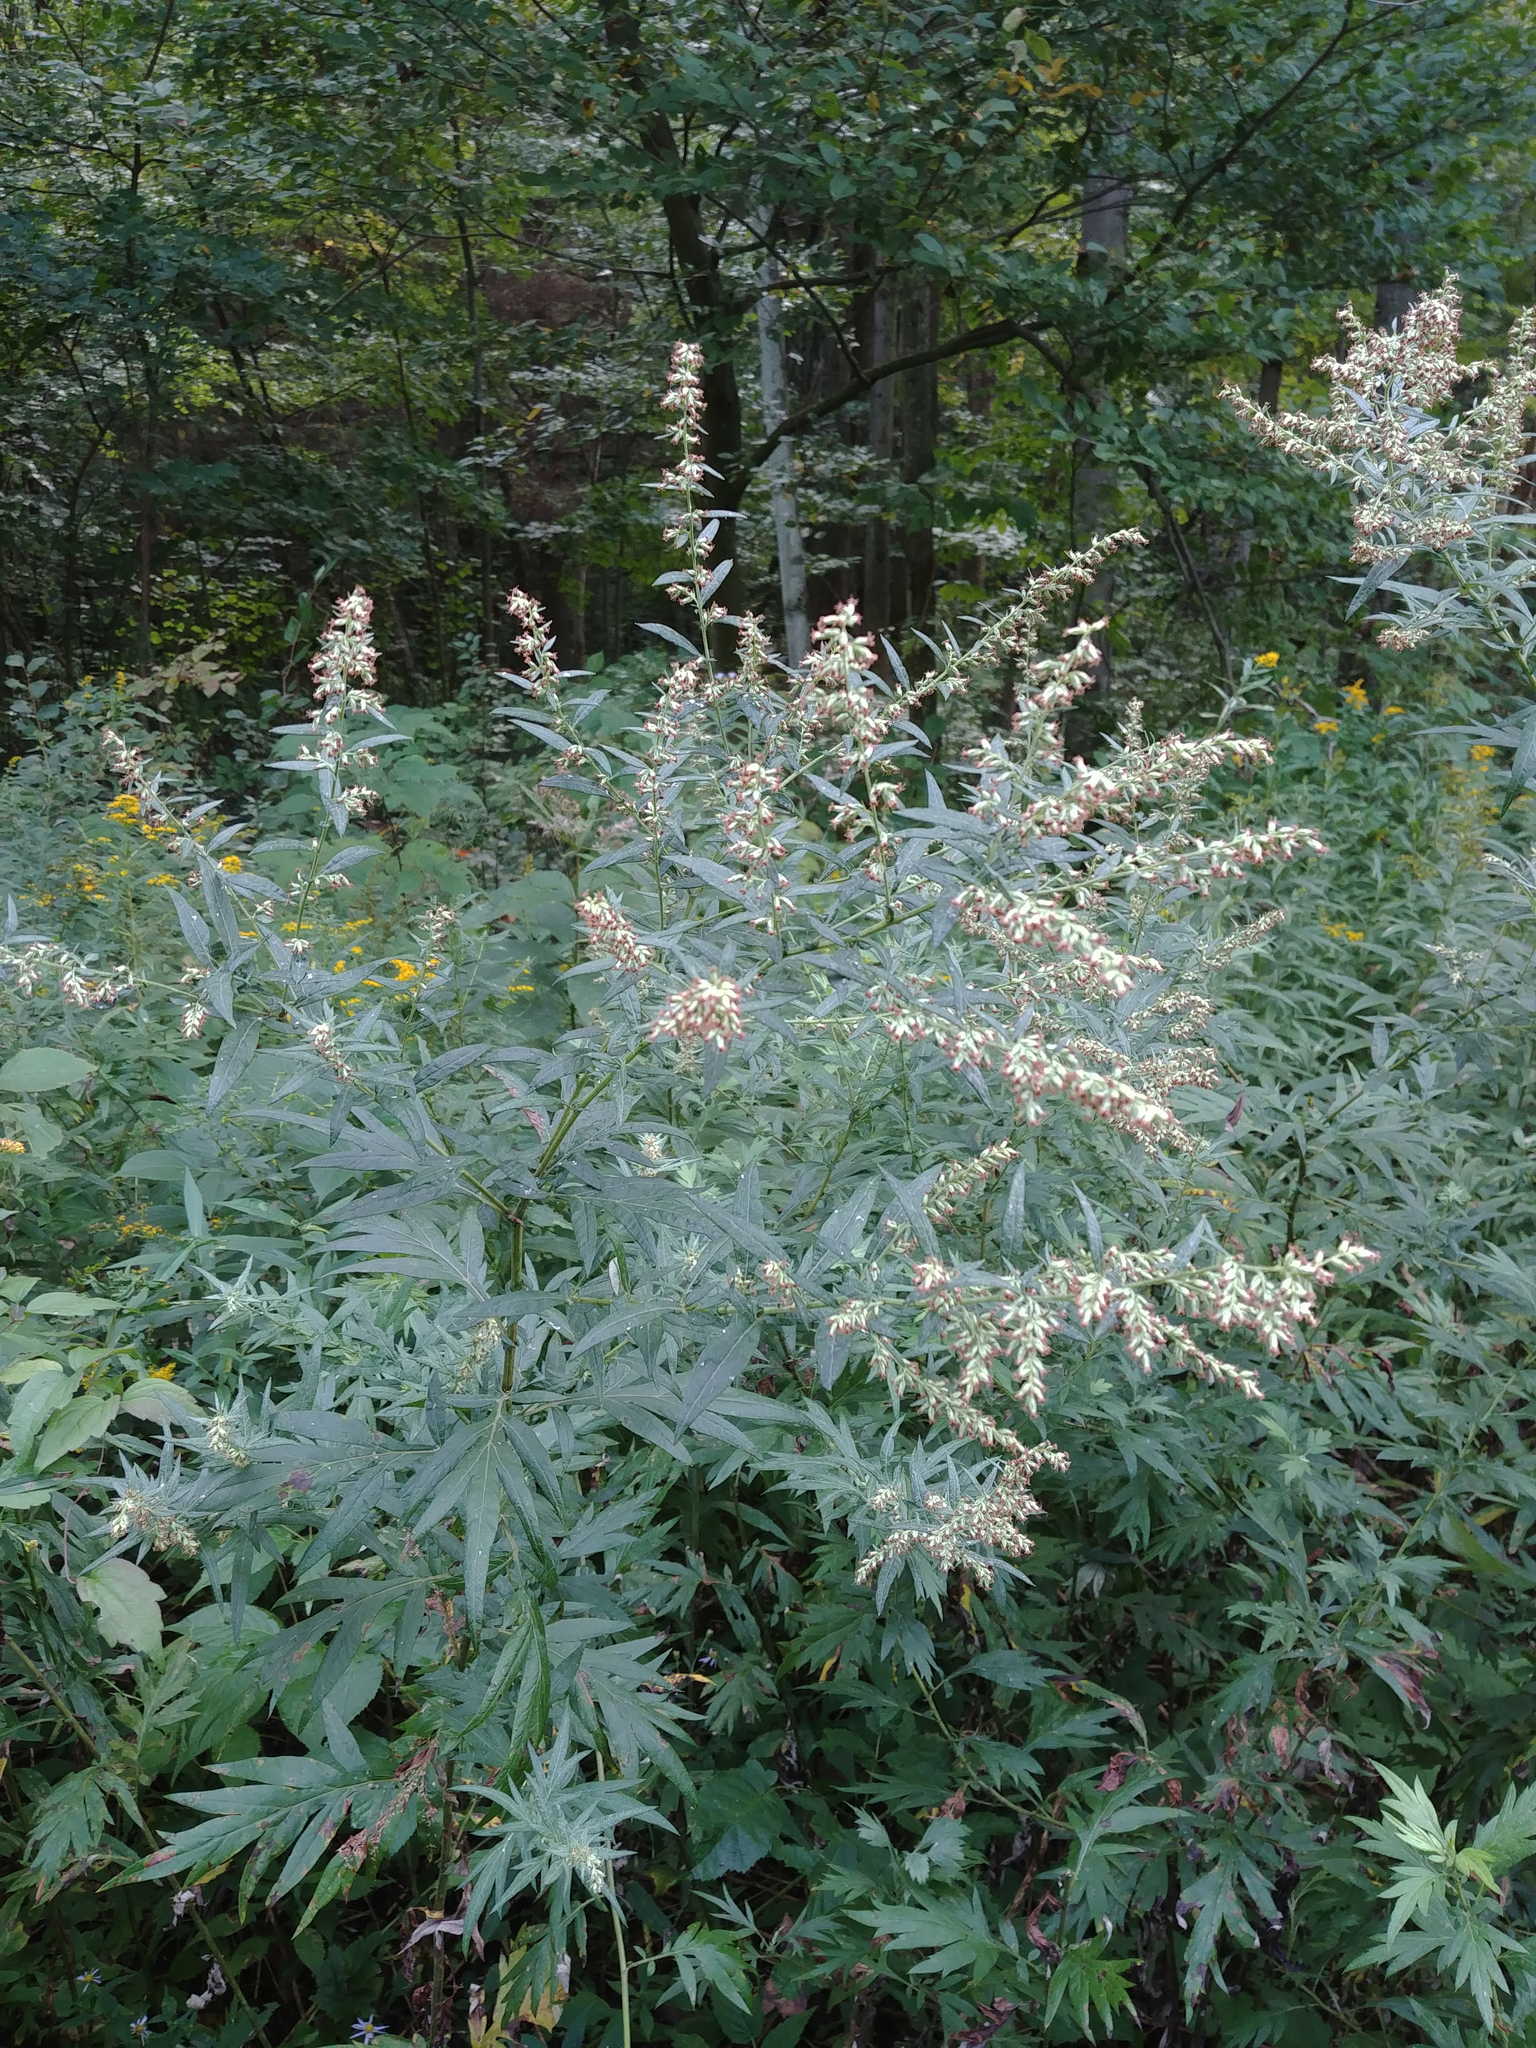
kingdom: Plantae
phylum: Tracheophyta
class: Magnoliopsida
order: Asterales
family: Asteraceae
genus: Artemisia
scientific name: Artemisia vulgaris
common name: Mugwort
